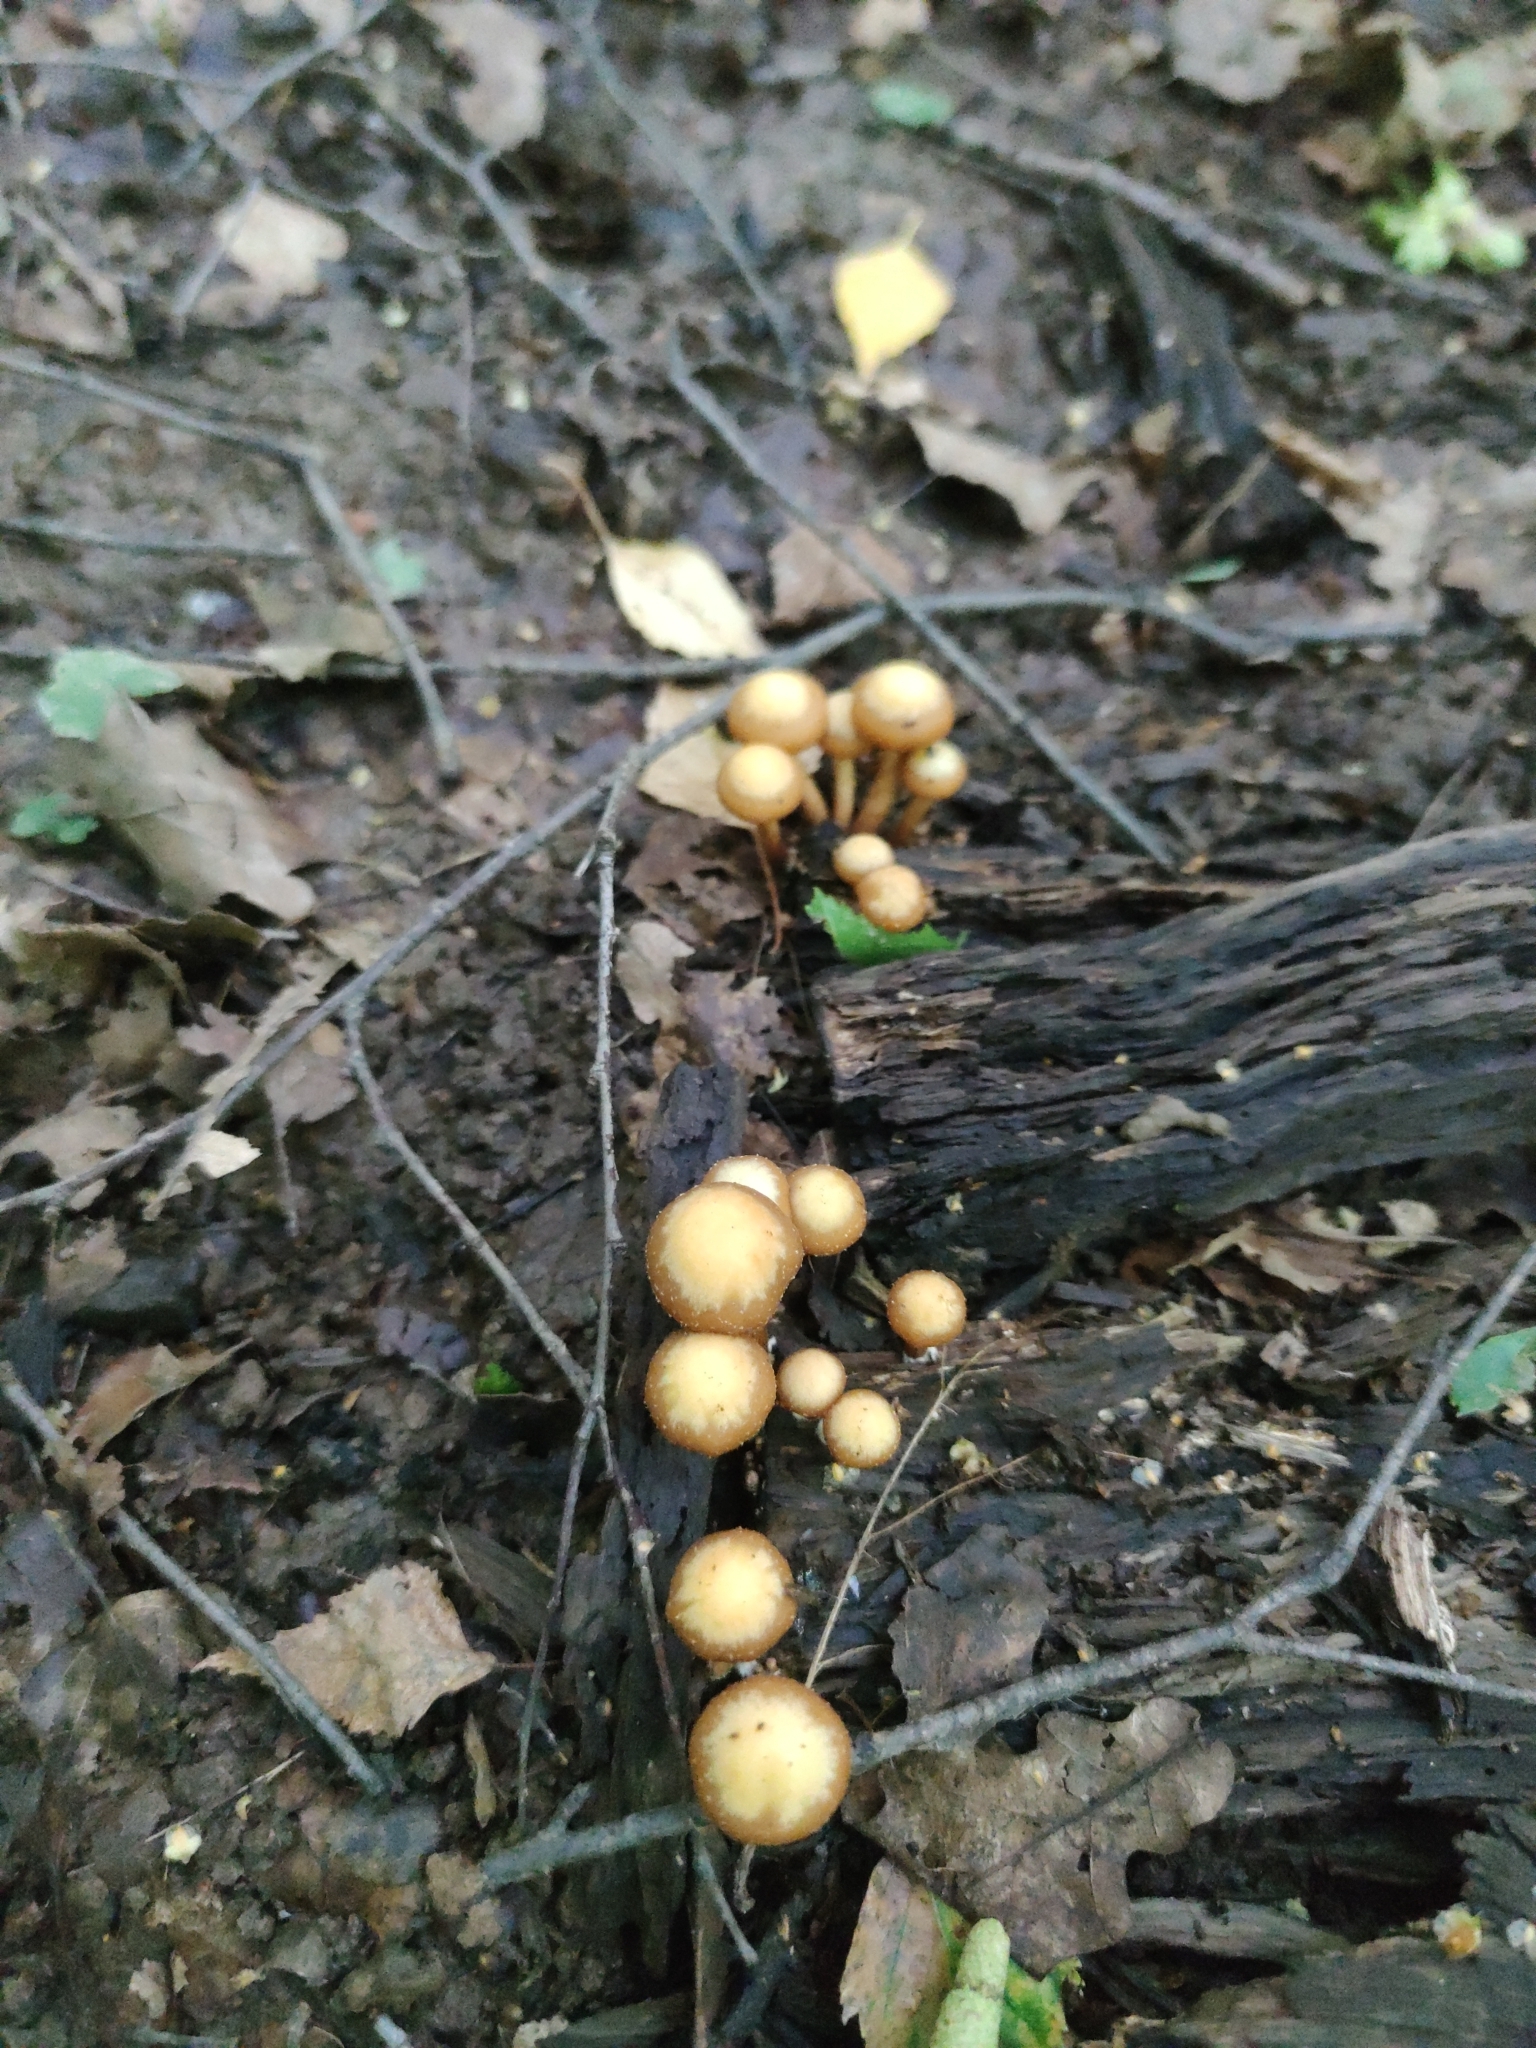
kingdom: Fungi
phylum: Basidiomycota
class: Agaricomycetes
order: Agaricales
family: Strophariaceae
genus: Kuehneromyces
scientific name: Kuehneromyces mutabilis
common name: Sheathed woodtuft
